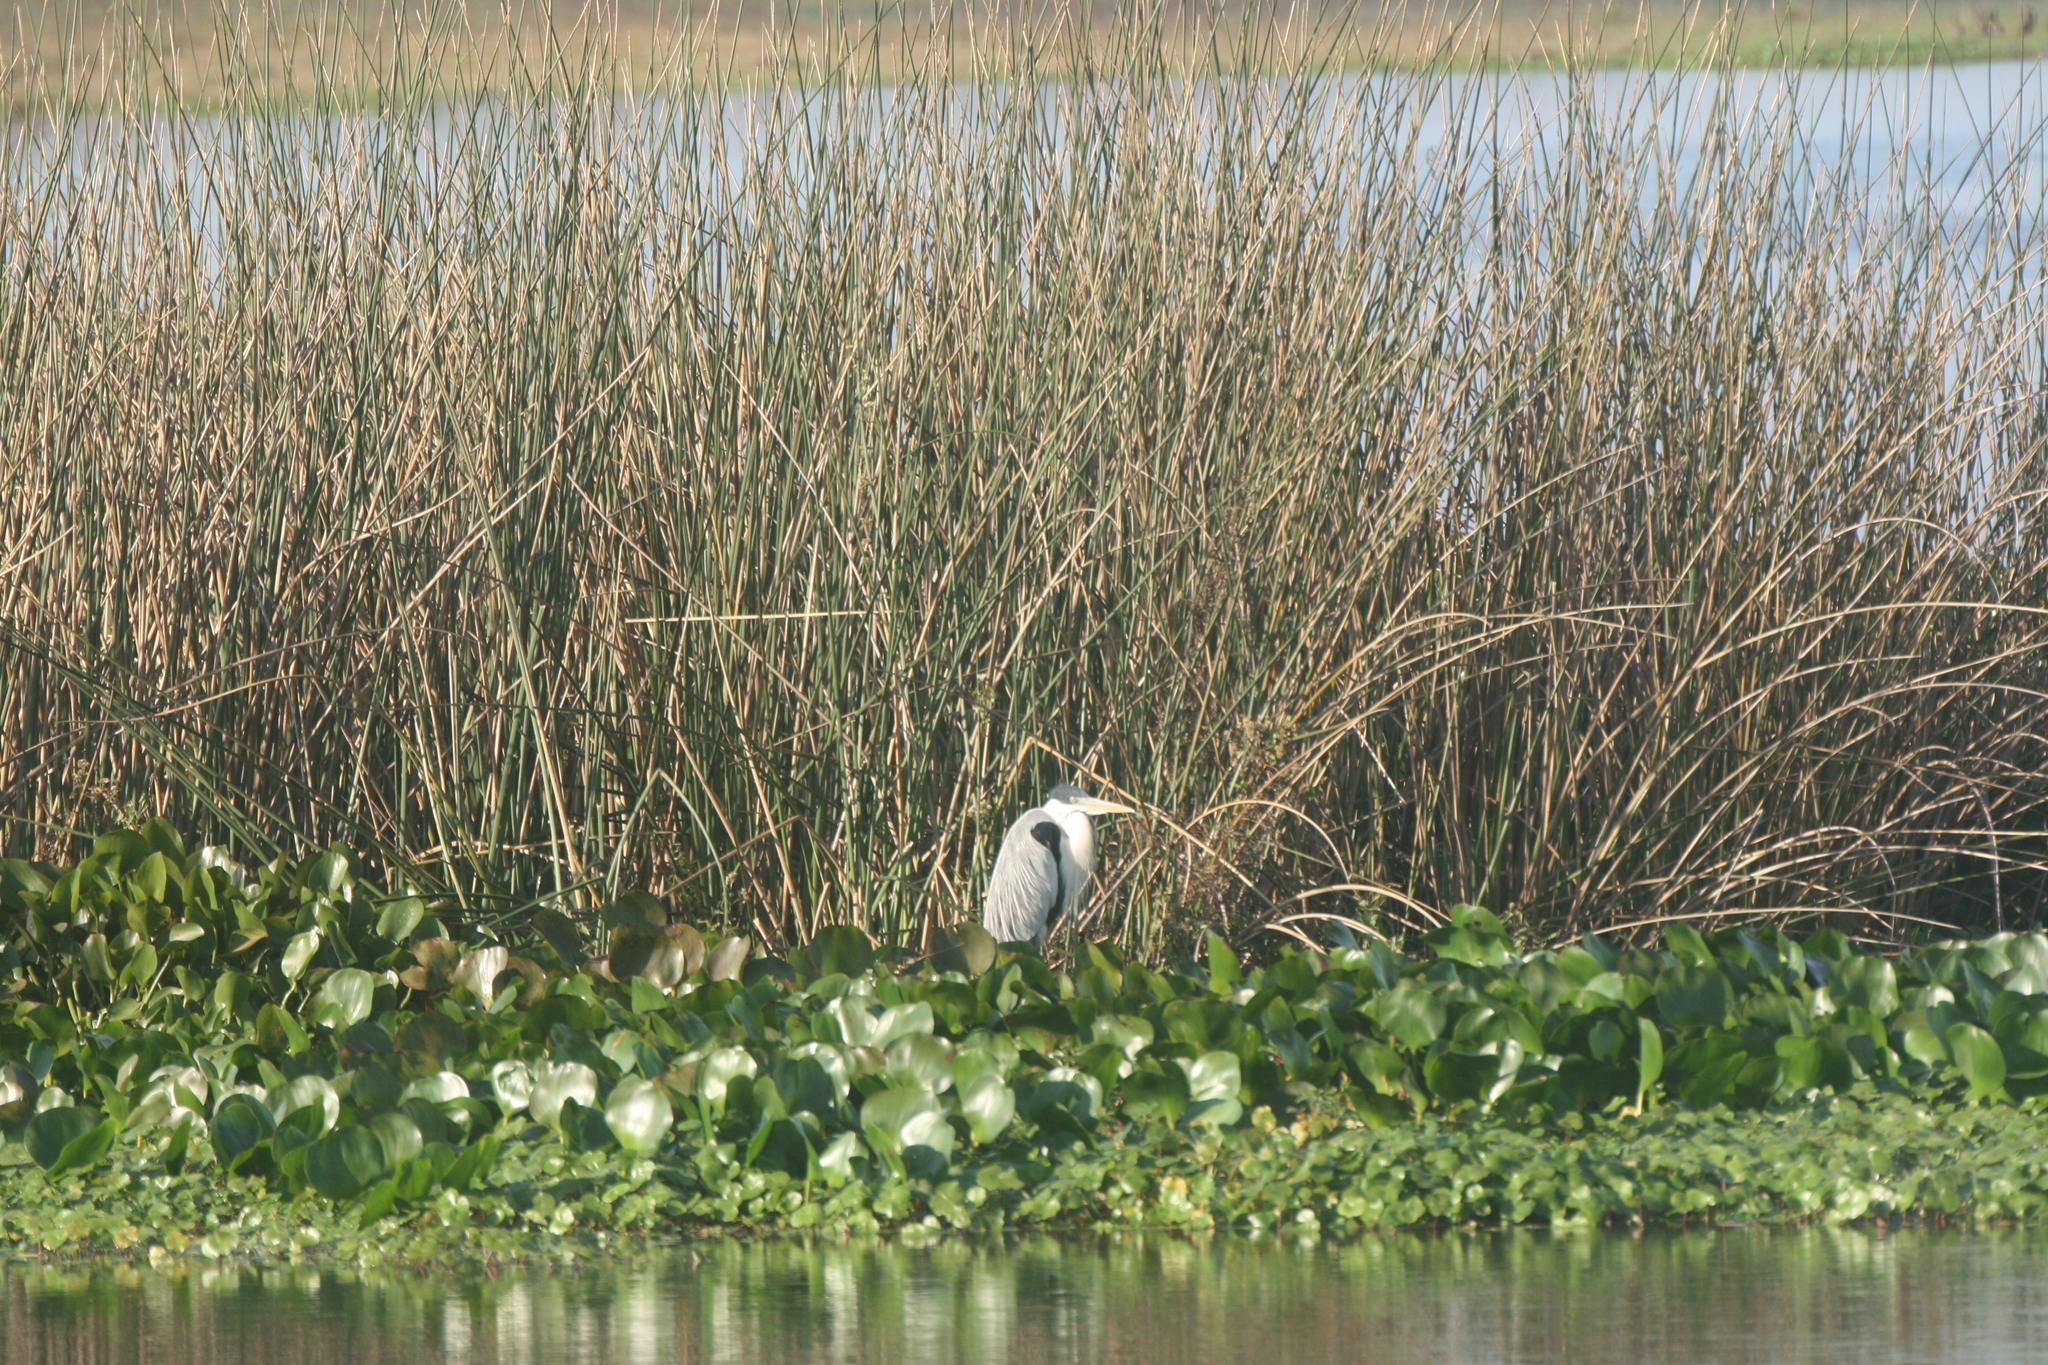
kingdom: Animalia
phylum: Chordata
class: Aves
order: Pelecaniformes
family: Ardeidae
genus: Ardea
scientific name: Ardea cocoi
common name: Cocoi heron
